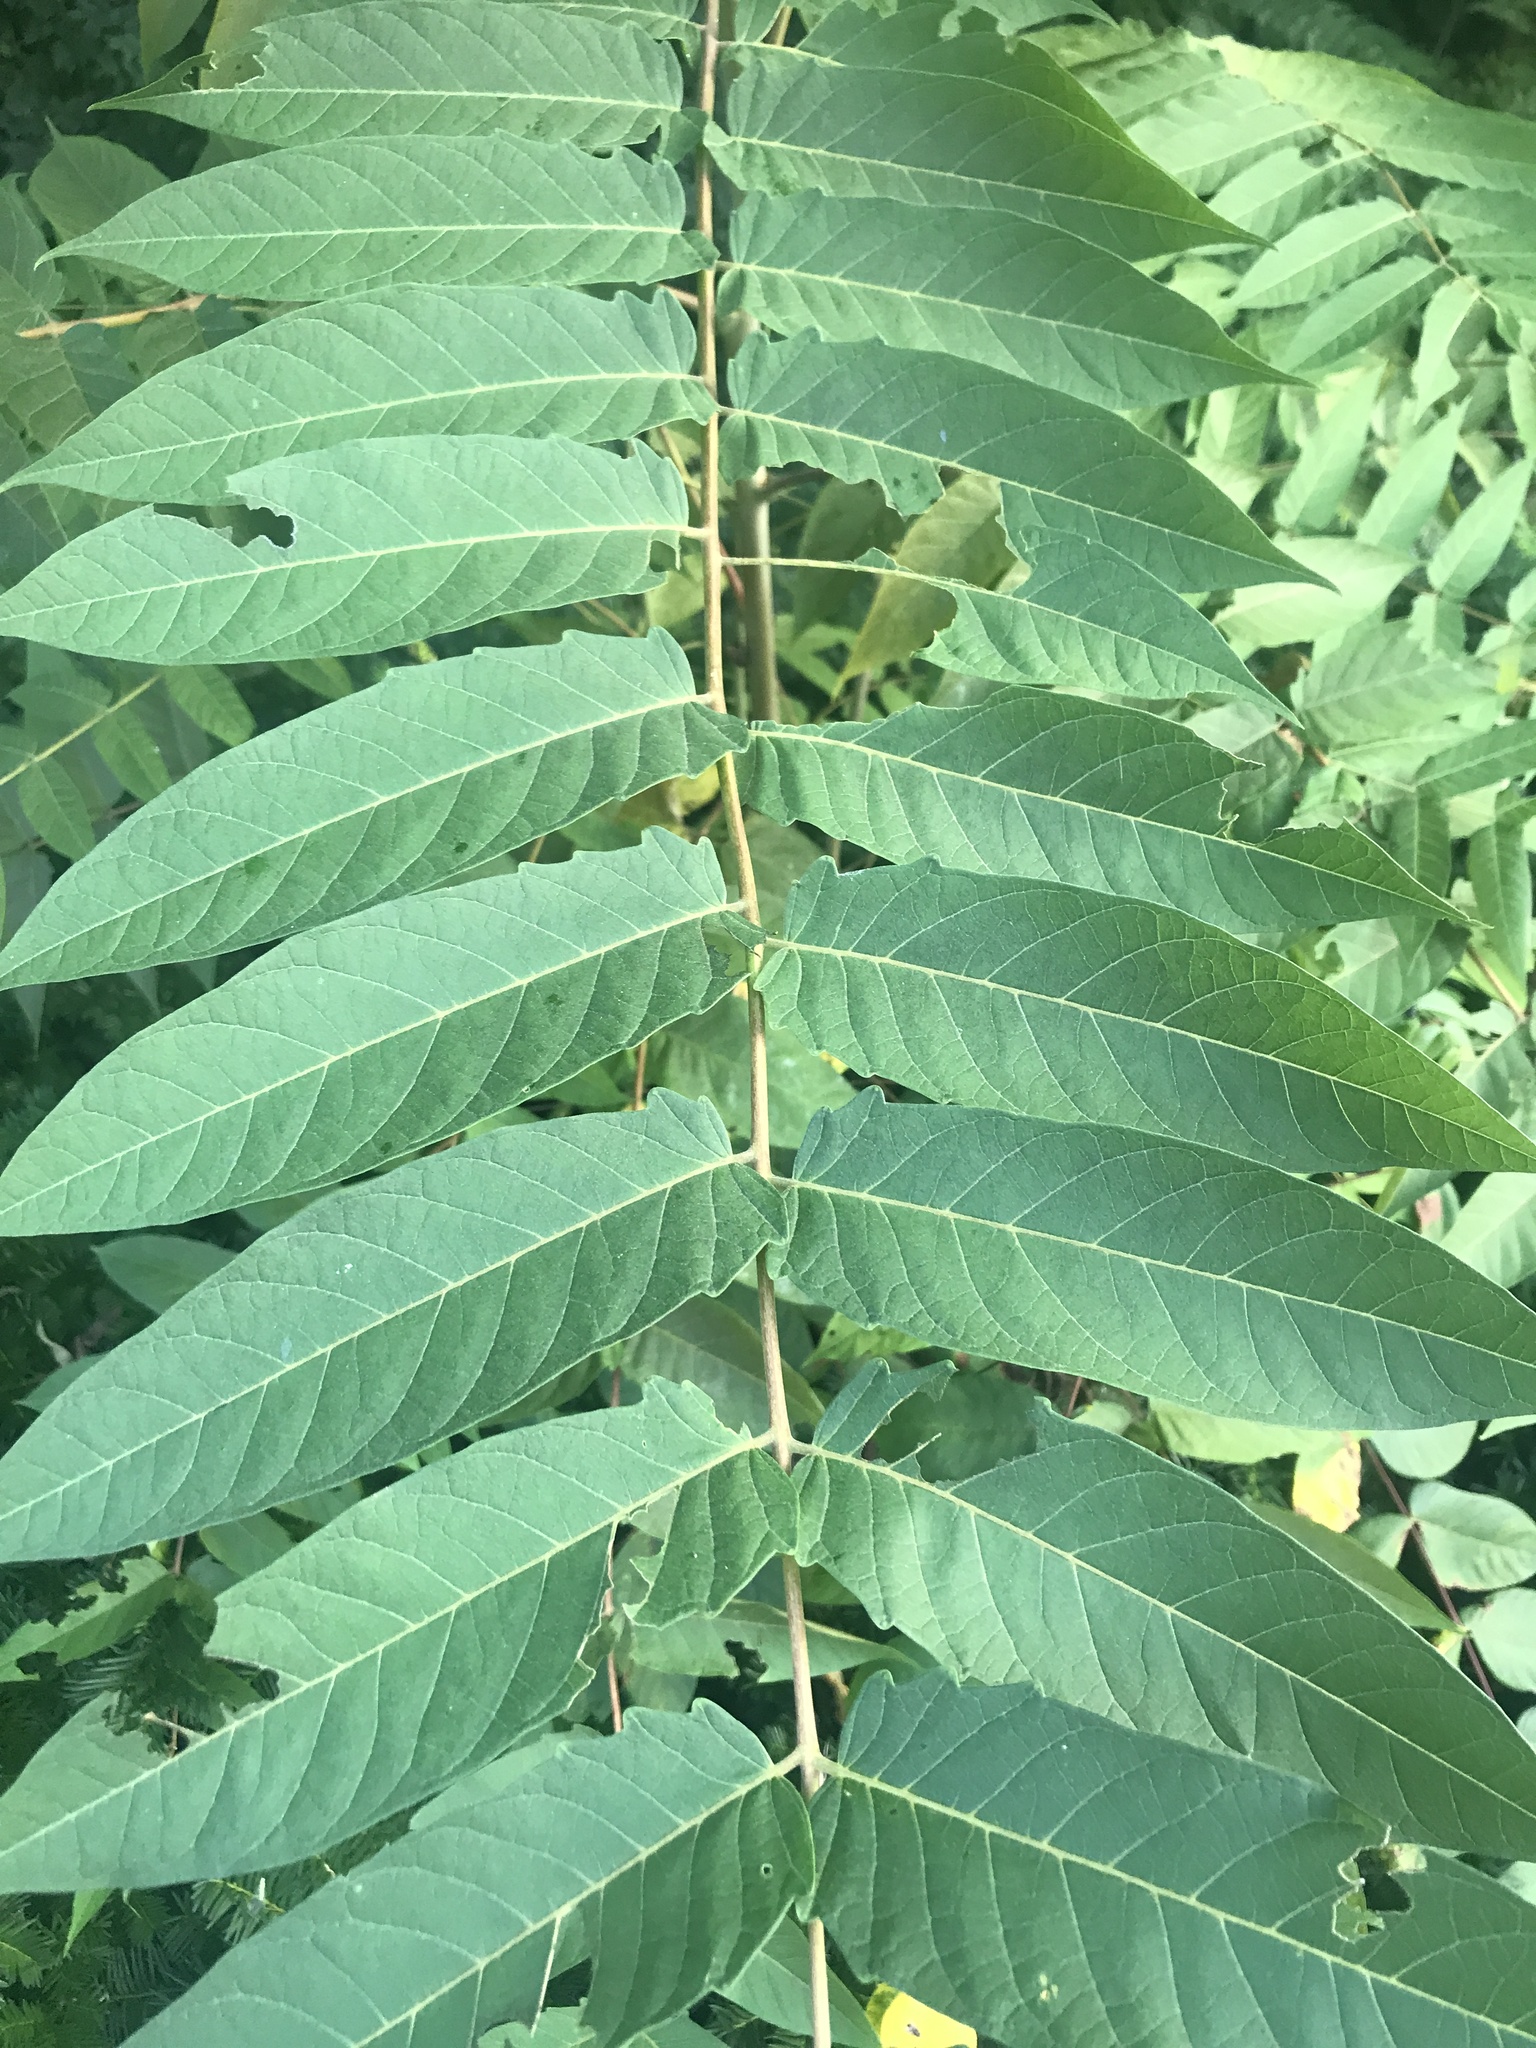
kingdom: Plantae
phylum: Tracheophyta
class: Magnoliopsida
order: Sapindales
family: Simaroubaceae
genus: Ailanthus
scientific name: Ailanthus altissima
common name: Tree-of-heaven
